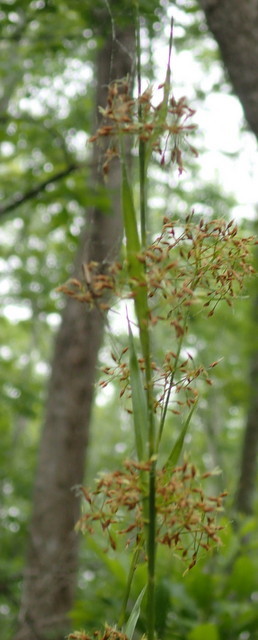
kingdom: Plantae
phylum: Tracheophyta
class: Liliopsida
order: Poales
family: Cyperaceae
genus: Cladium
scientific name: Cladium mariscus
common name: Great fen-sedge
